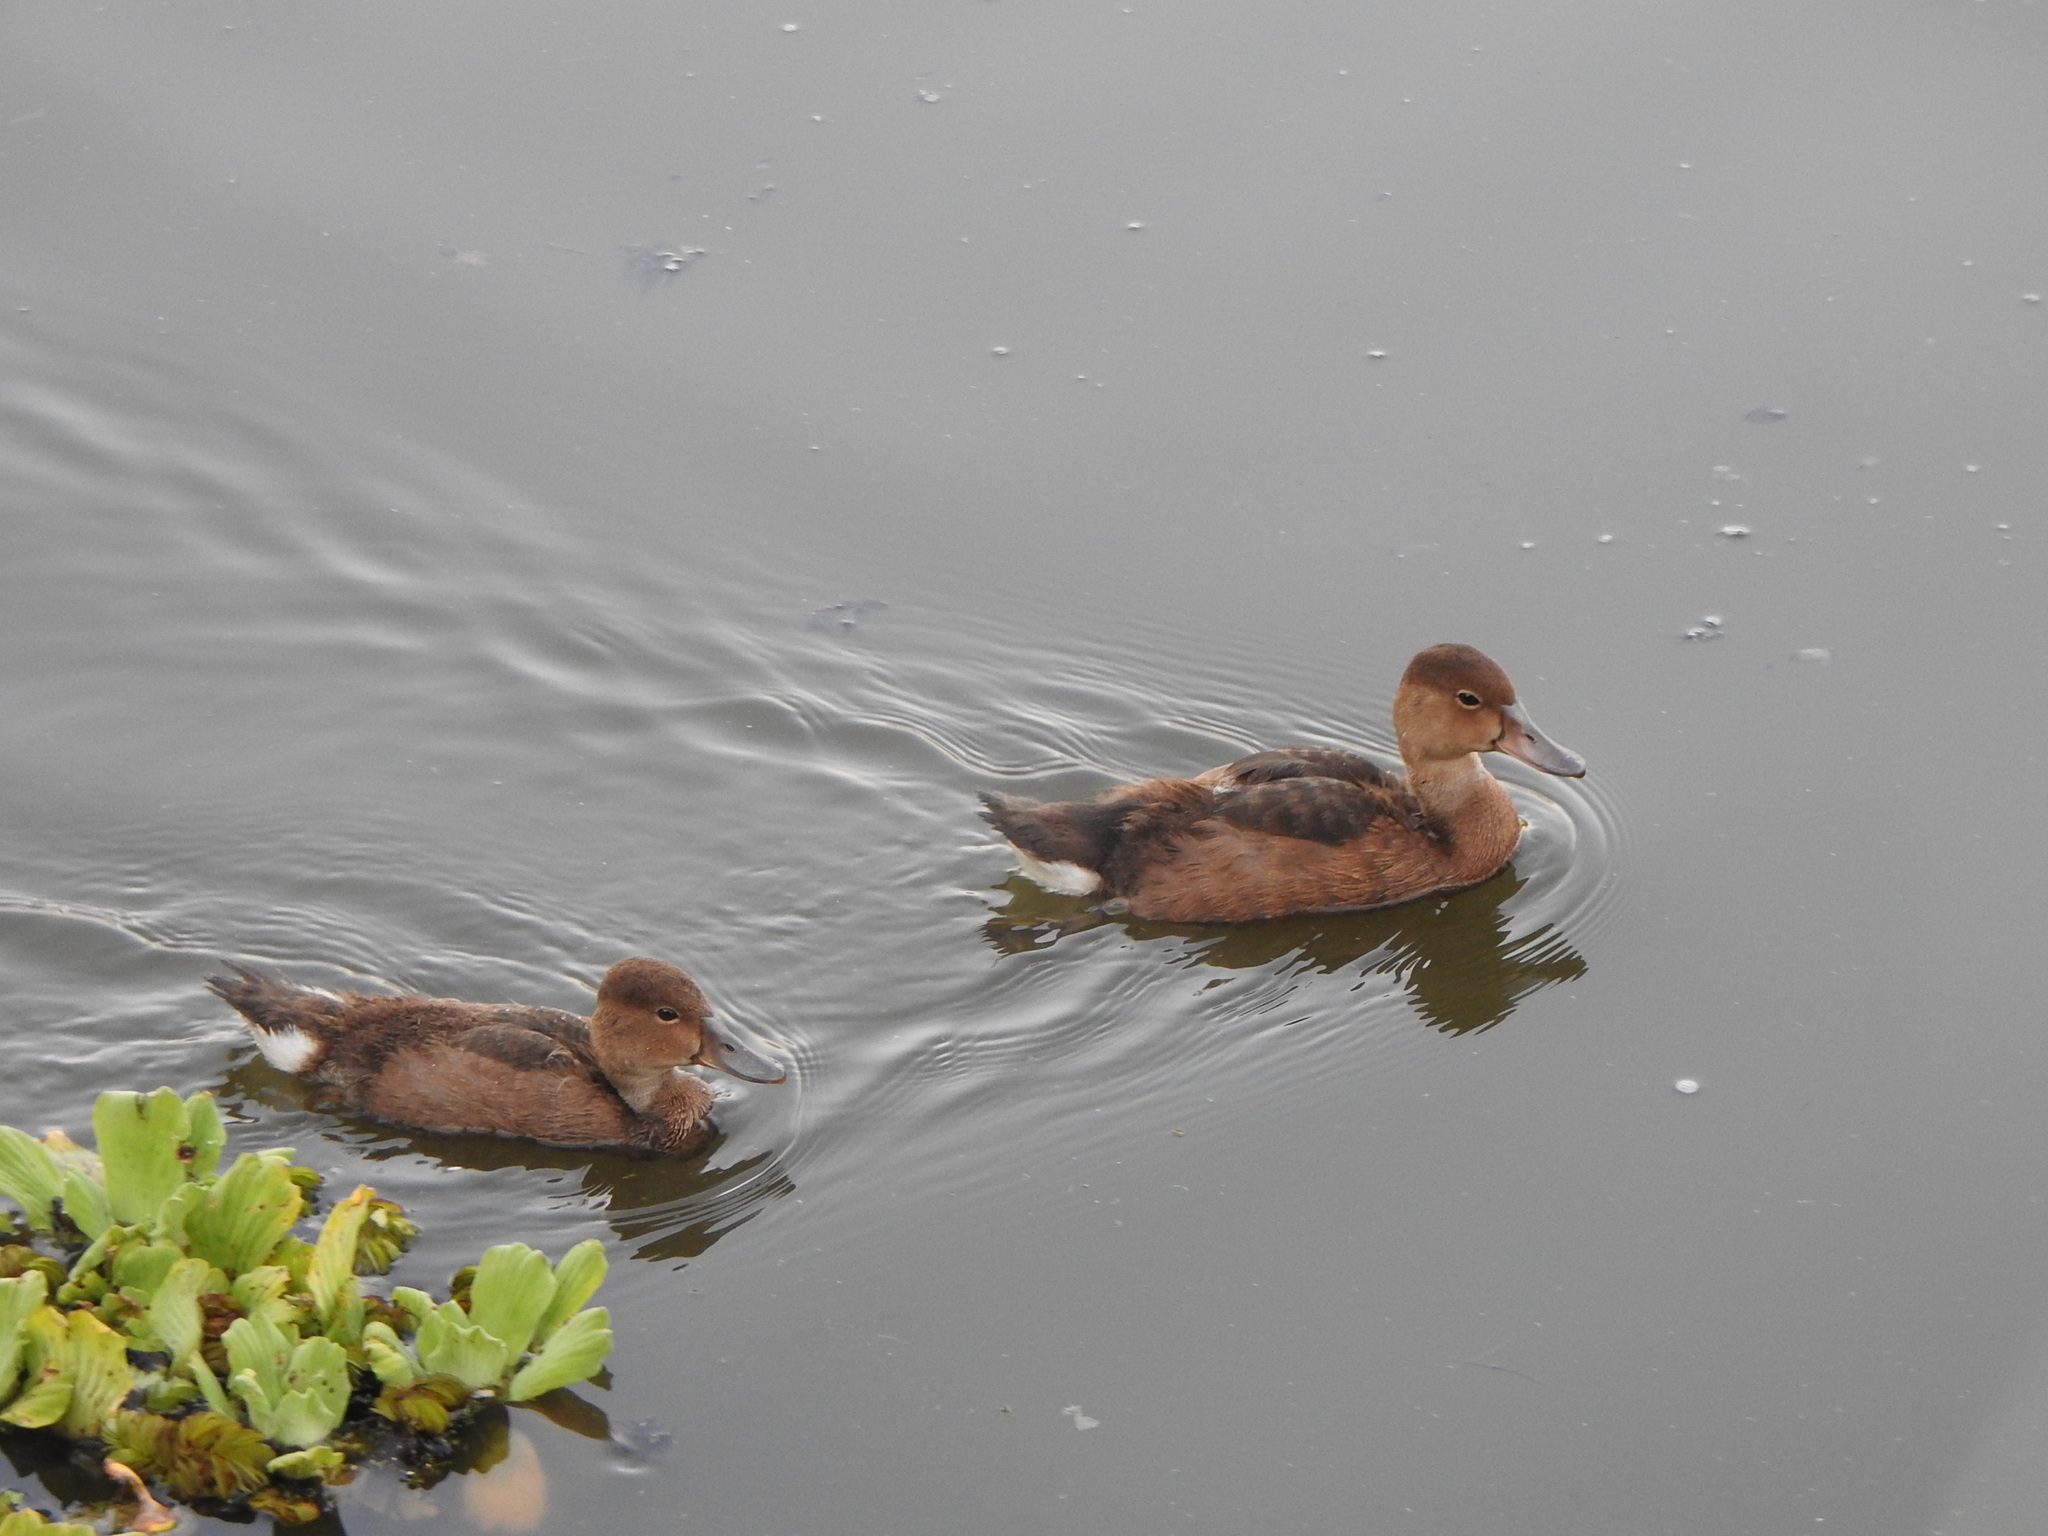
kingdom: Animalia
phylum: Chordata
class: Aves
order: Anseriformes
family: Anatidae
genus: Netta
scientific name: Netta peposaca
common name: Rosy-billed pochard
